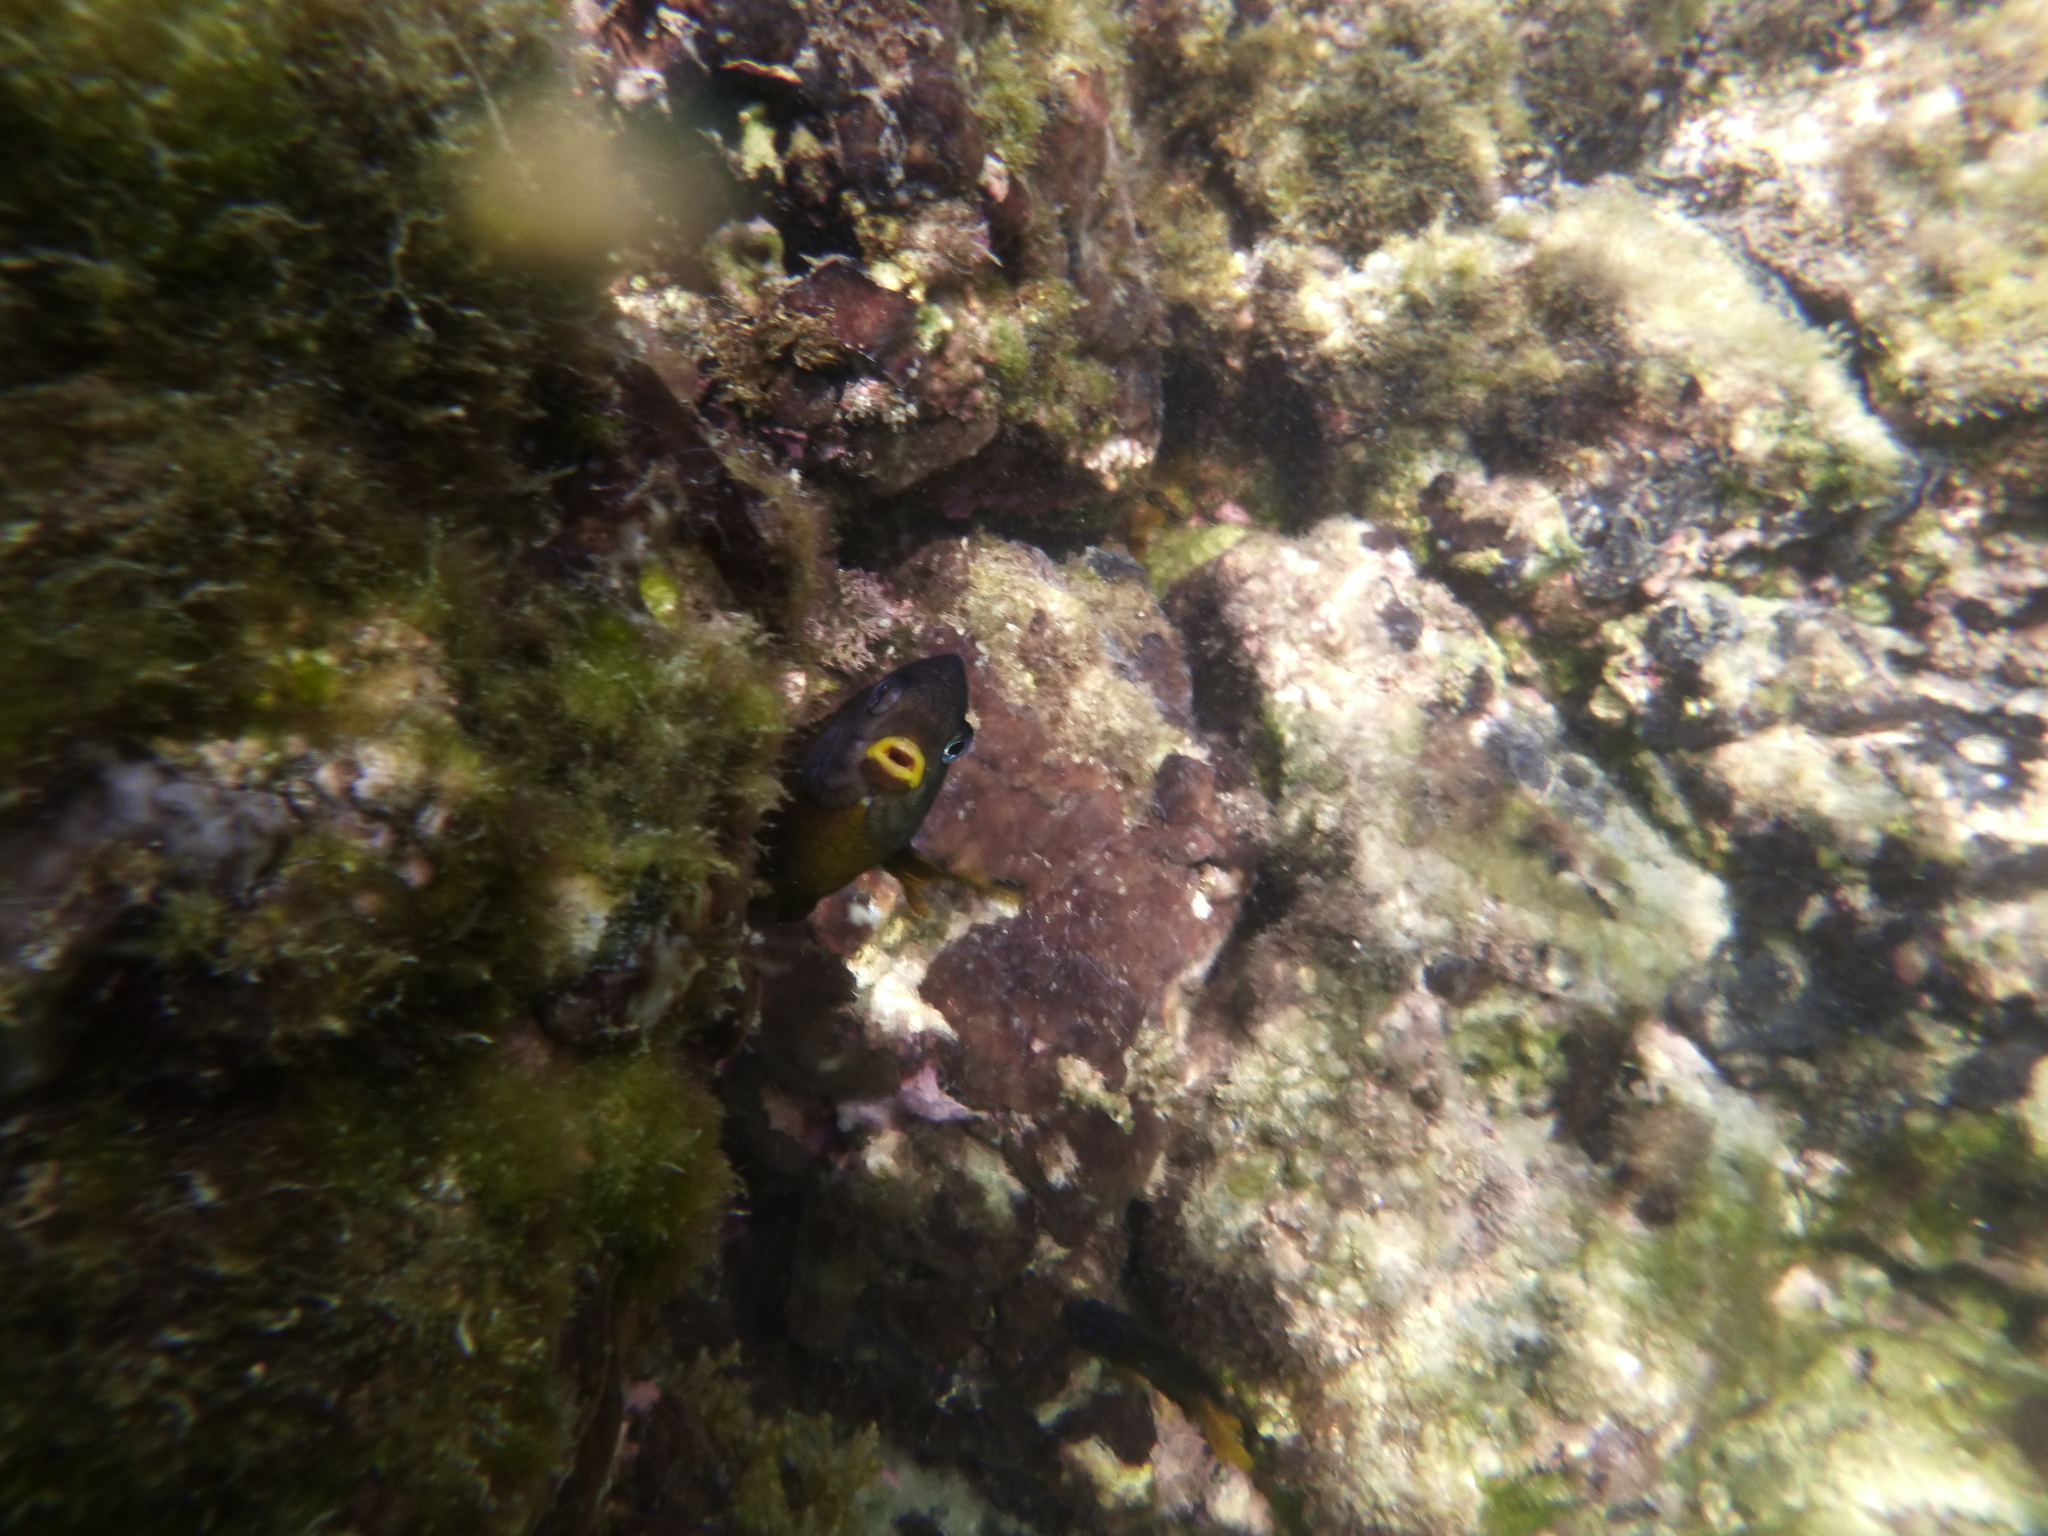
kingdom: Animalia
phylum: Chordata
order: Perciformes
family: Pomacentridae
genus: Stegastes
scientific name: Stegastes arcifrons
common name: Galapagos gregory
